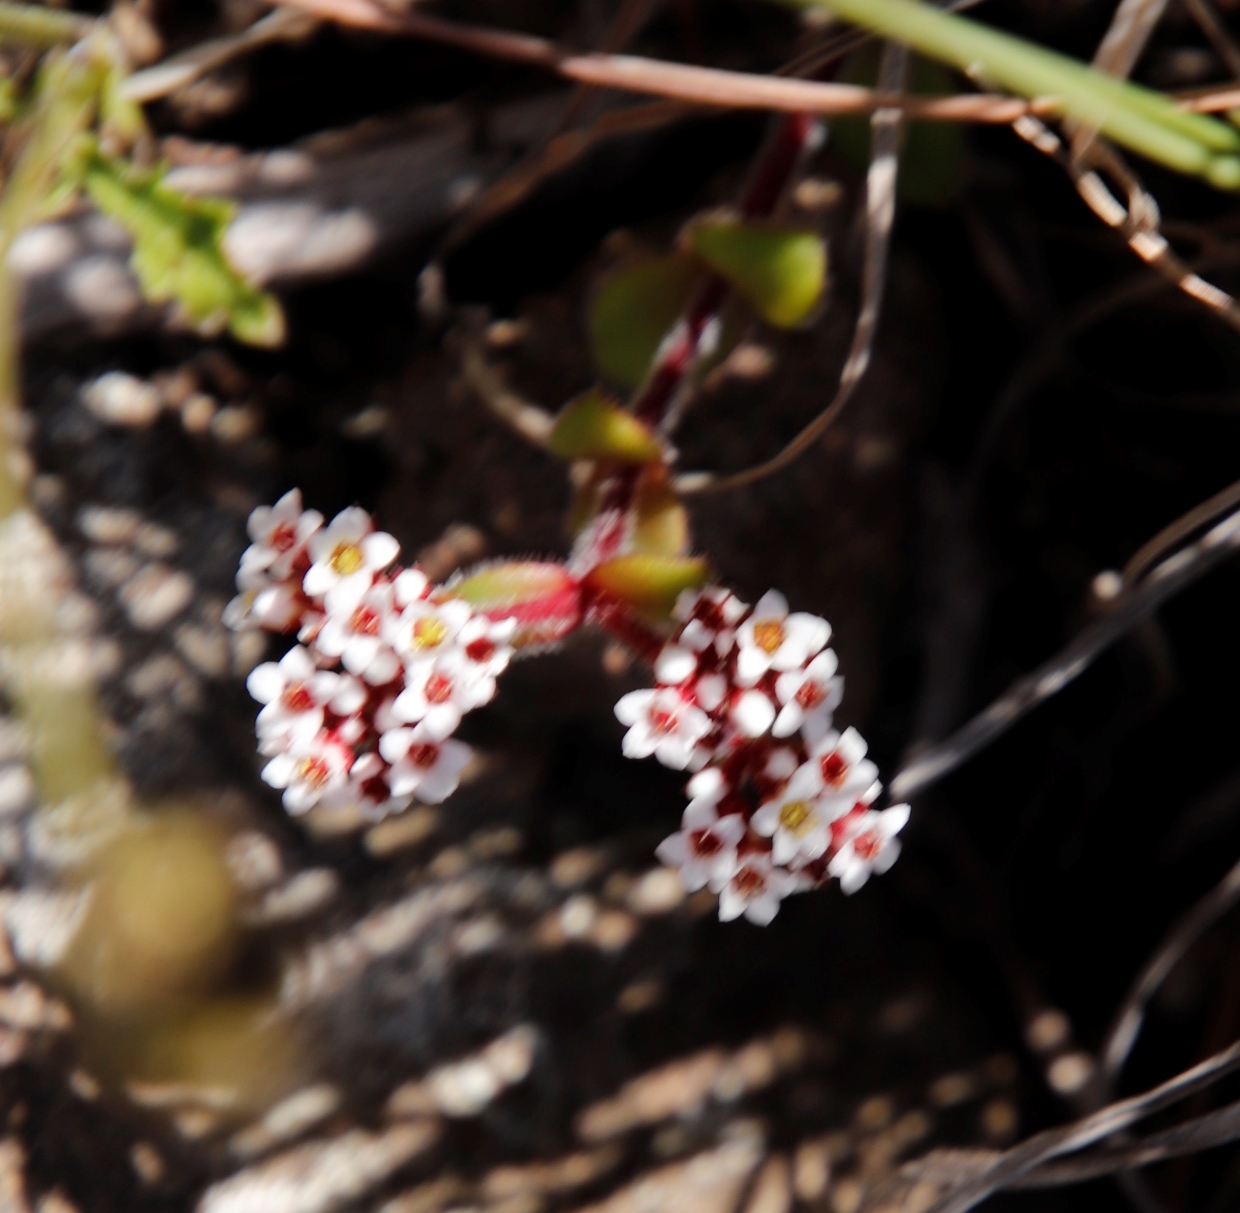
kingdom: Plantae
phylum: Tracheophyta
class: Magnoliopsida
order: Saxifragales
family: Crassulaceae
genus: Crassula
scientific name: Crassula natalensis
